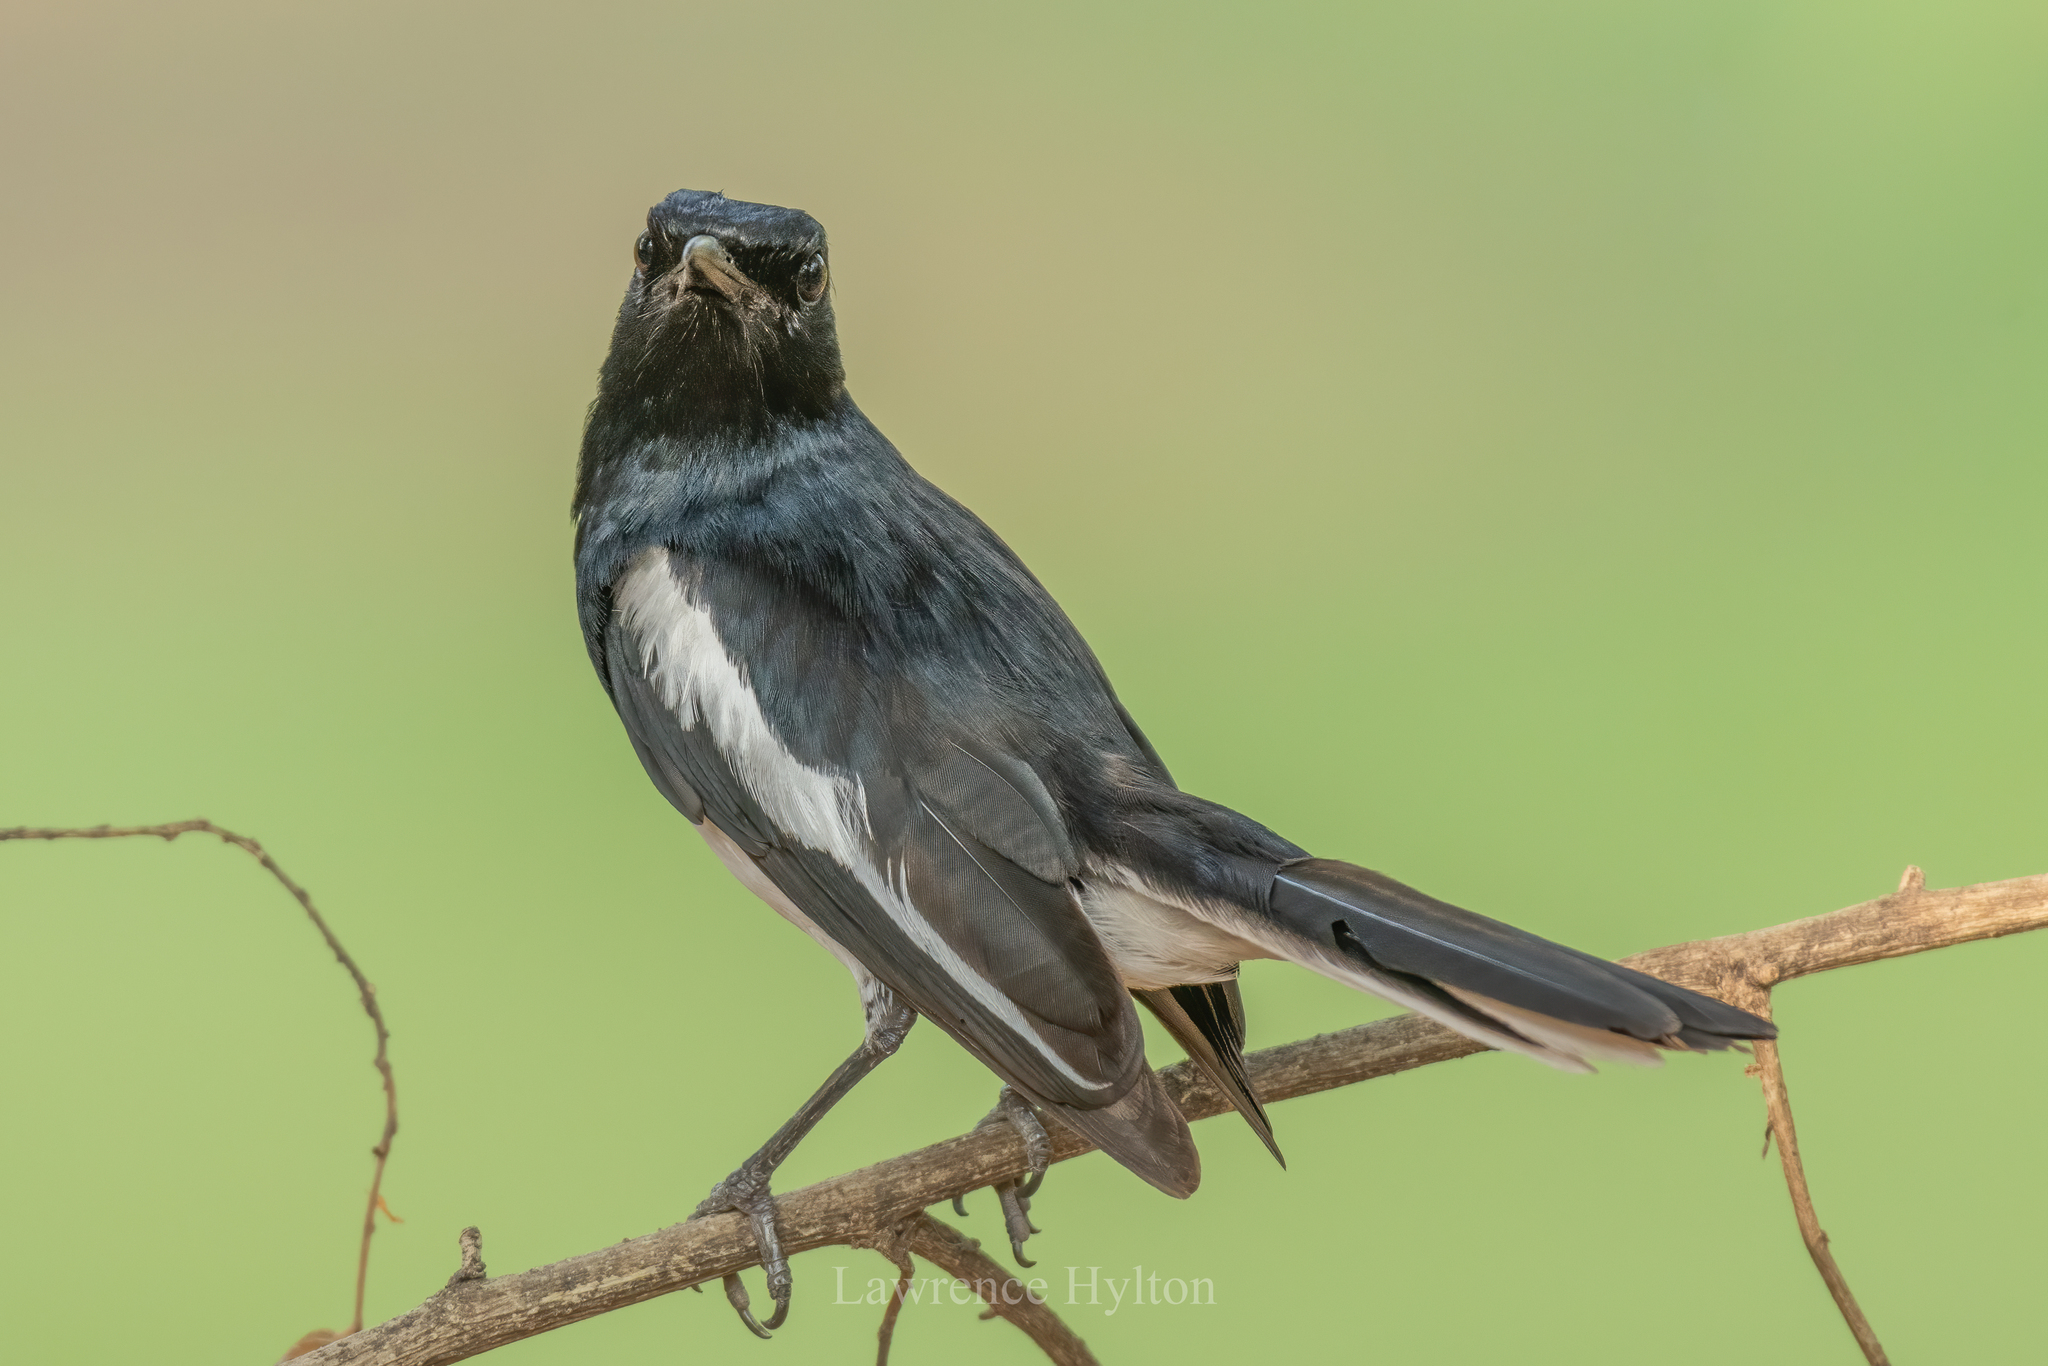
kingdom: Animalia
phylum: Chordata
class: Aves
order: Passeriformes
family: Muscicapidae
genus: Copsychus
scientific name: Copsychus saularis
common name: Oriental magpie-robin
